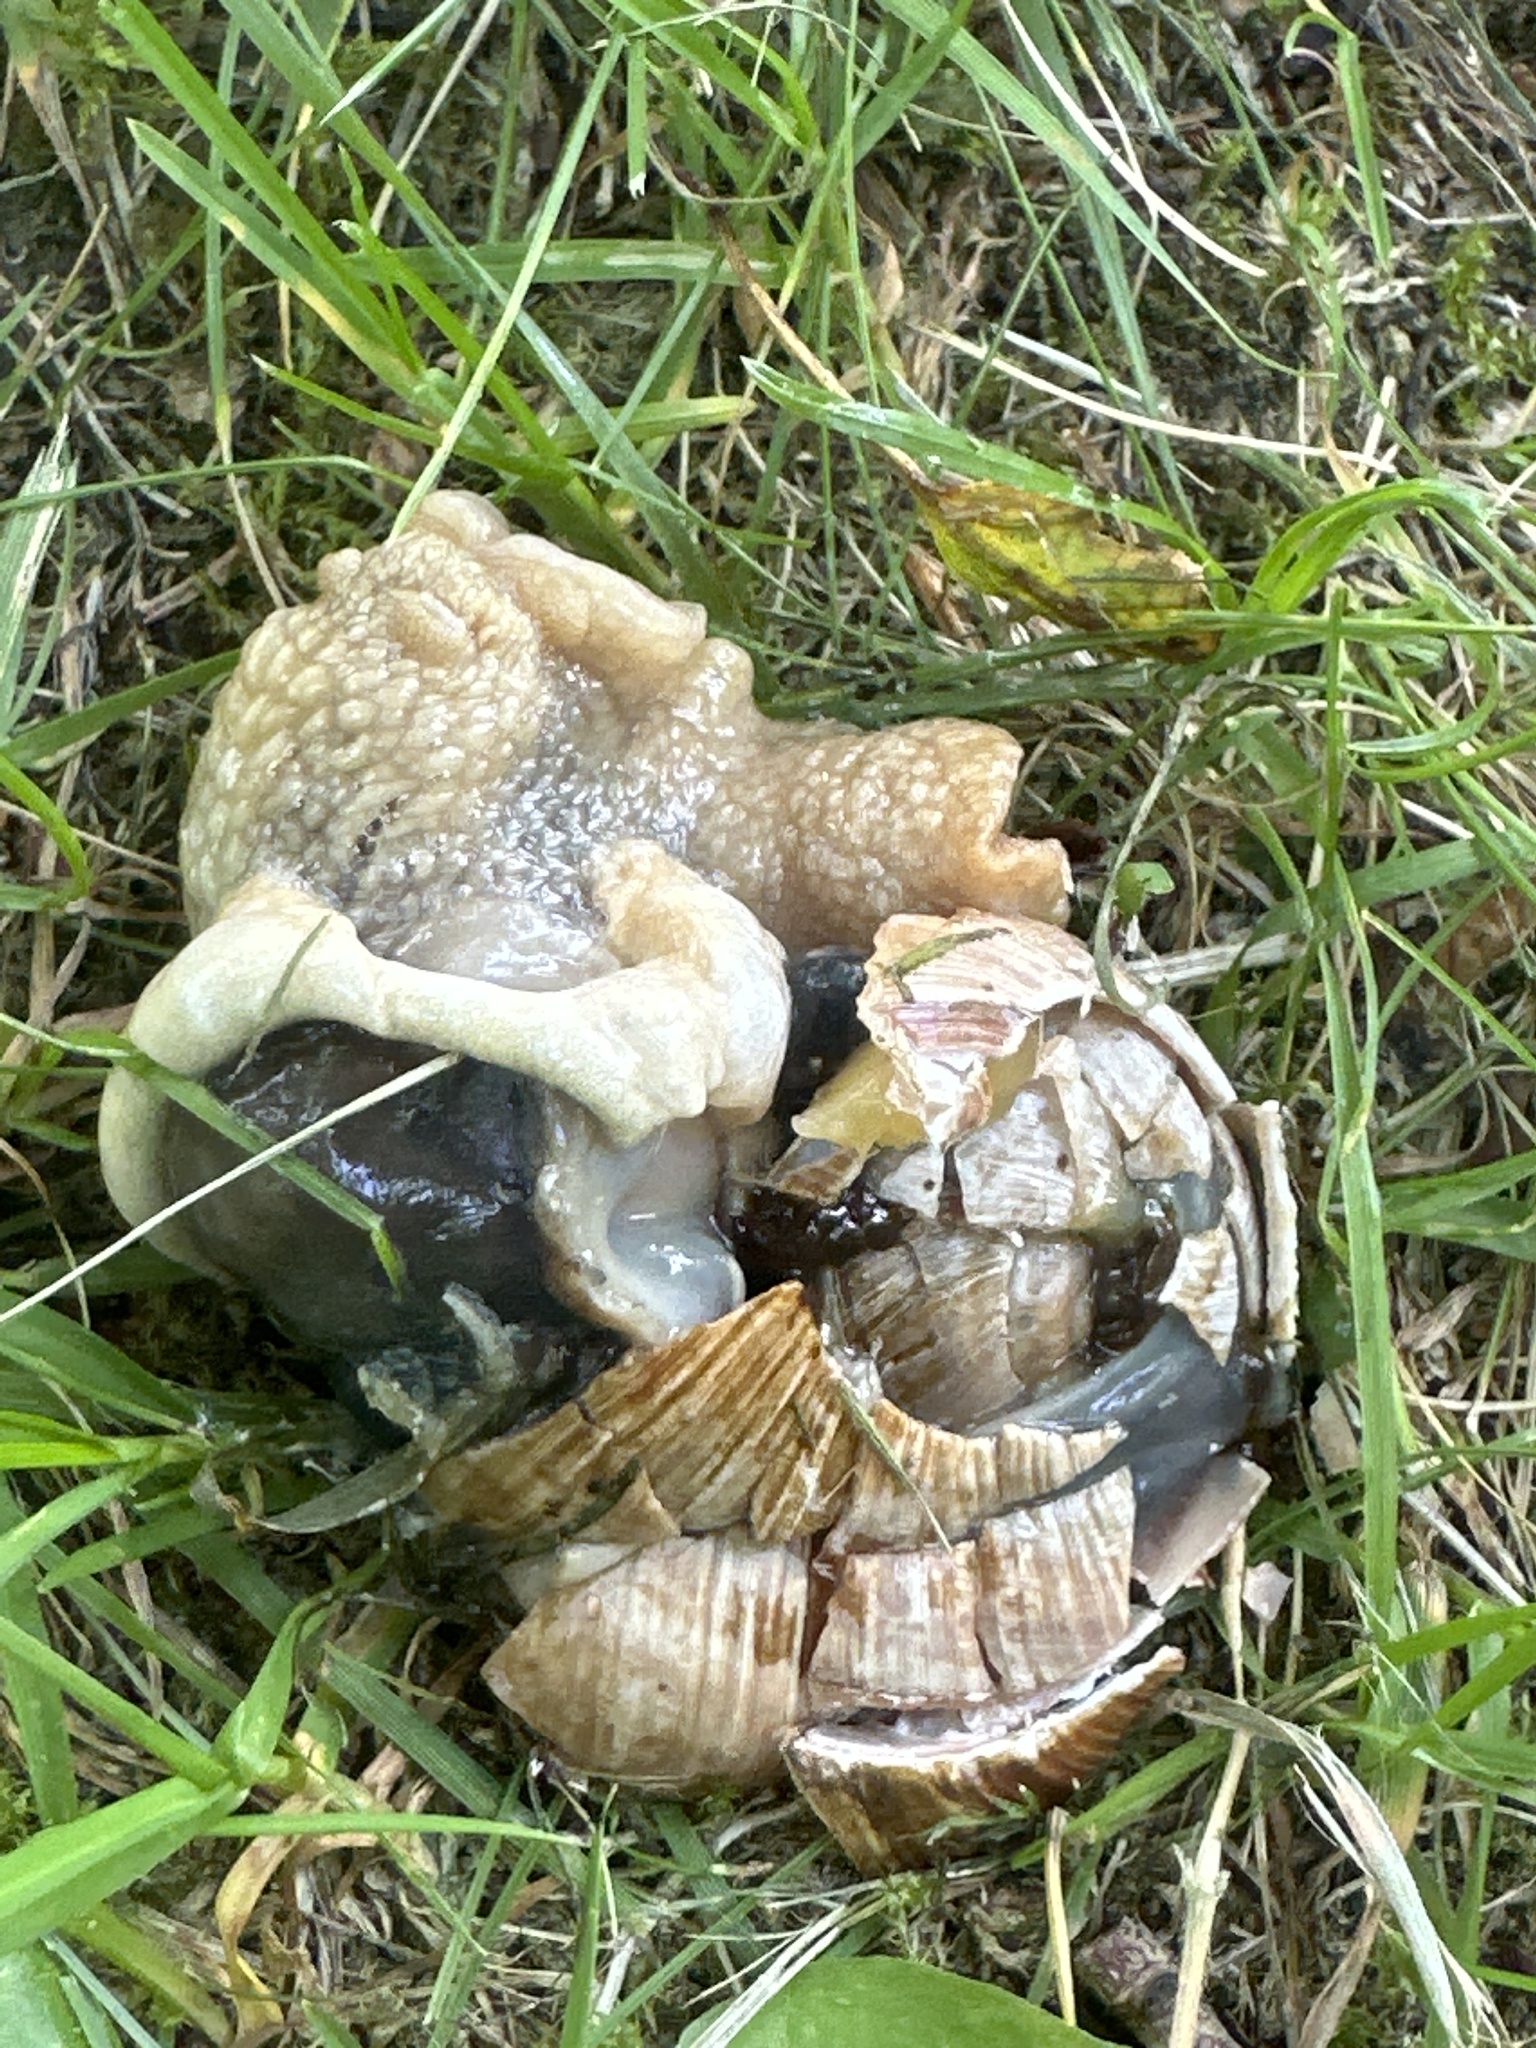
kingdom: Animalia
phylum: Mollusca
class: Gastropoda
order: Stylommatophora
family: Helicidae
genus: Helix
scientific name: Helix pomatia
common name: Roman snail
